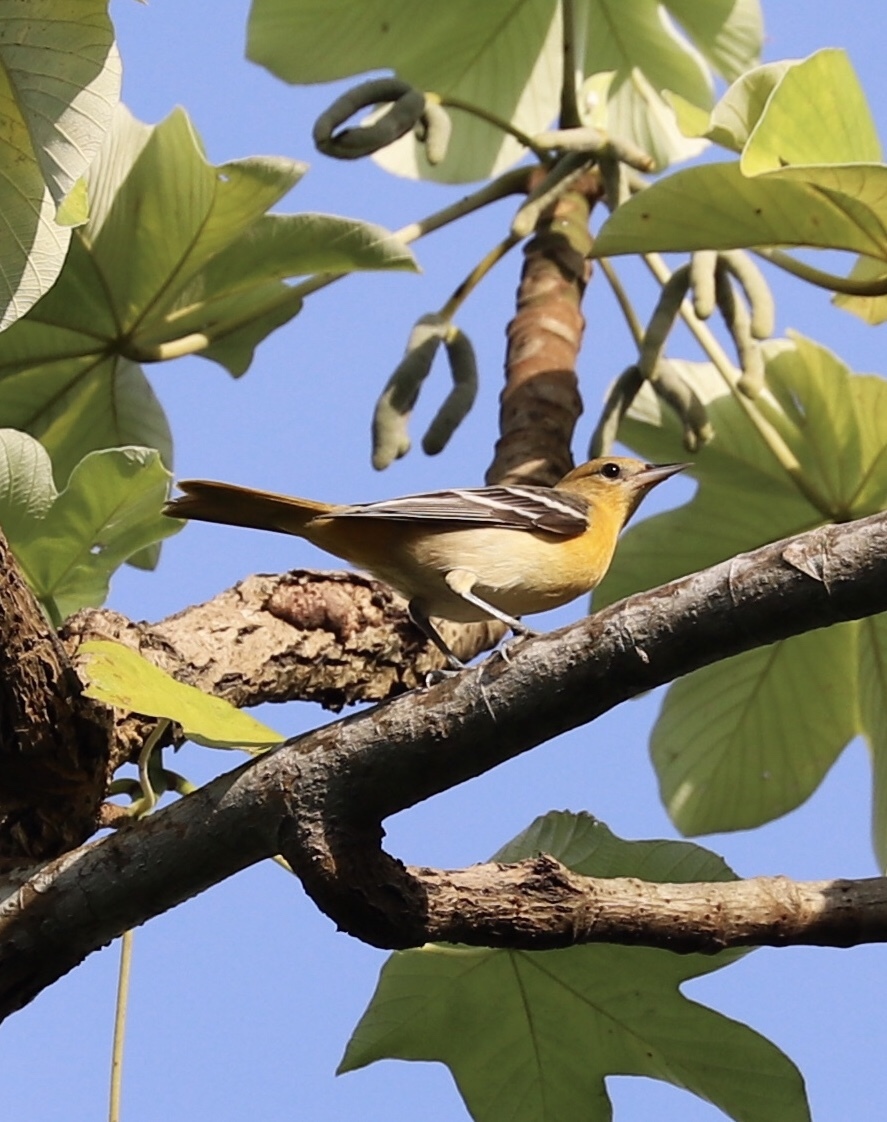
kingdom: Animalia
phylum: Chordata
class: Aves
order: Passeriformes
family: Icteridae
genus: Icterus
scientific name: Icterus galbula
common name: Baltimore oriole
